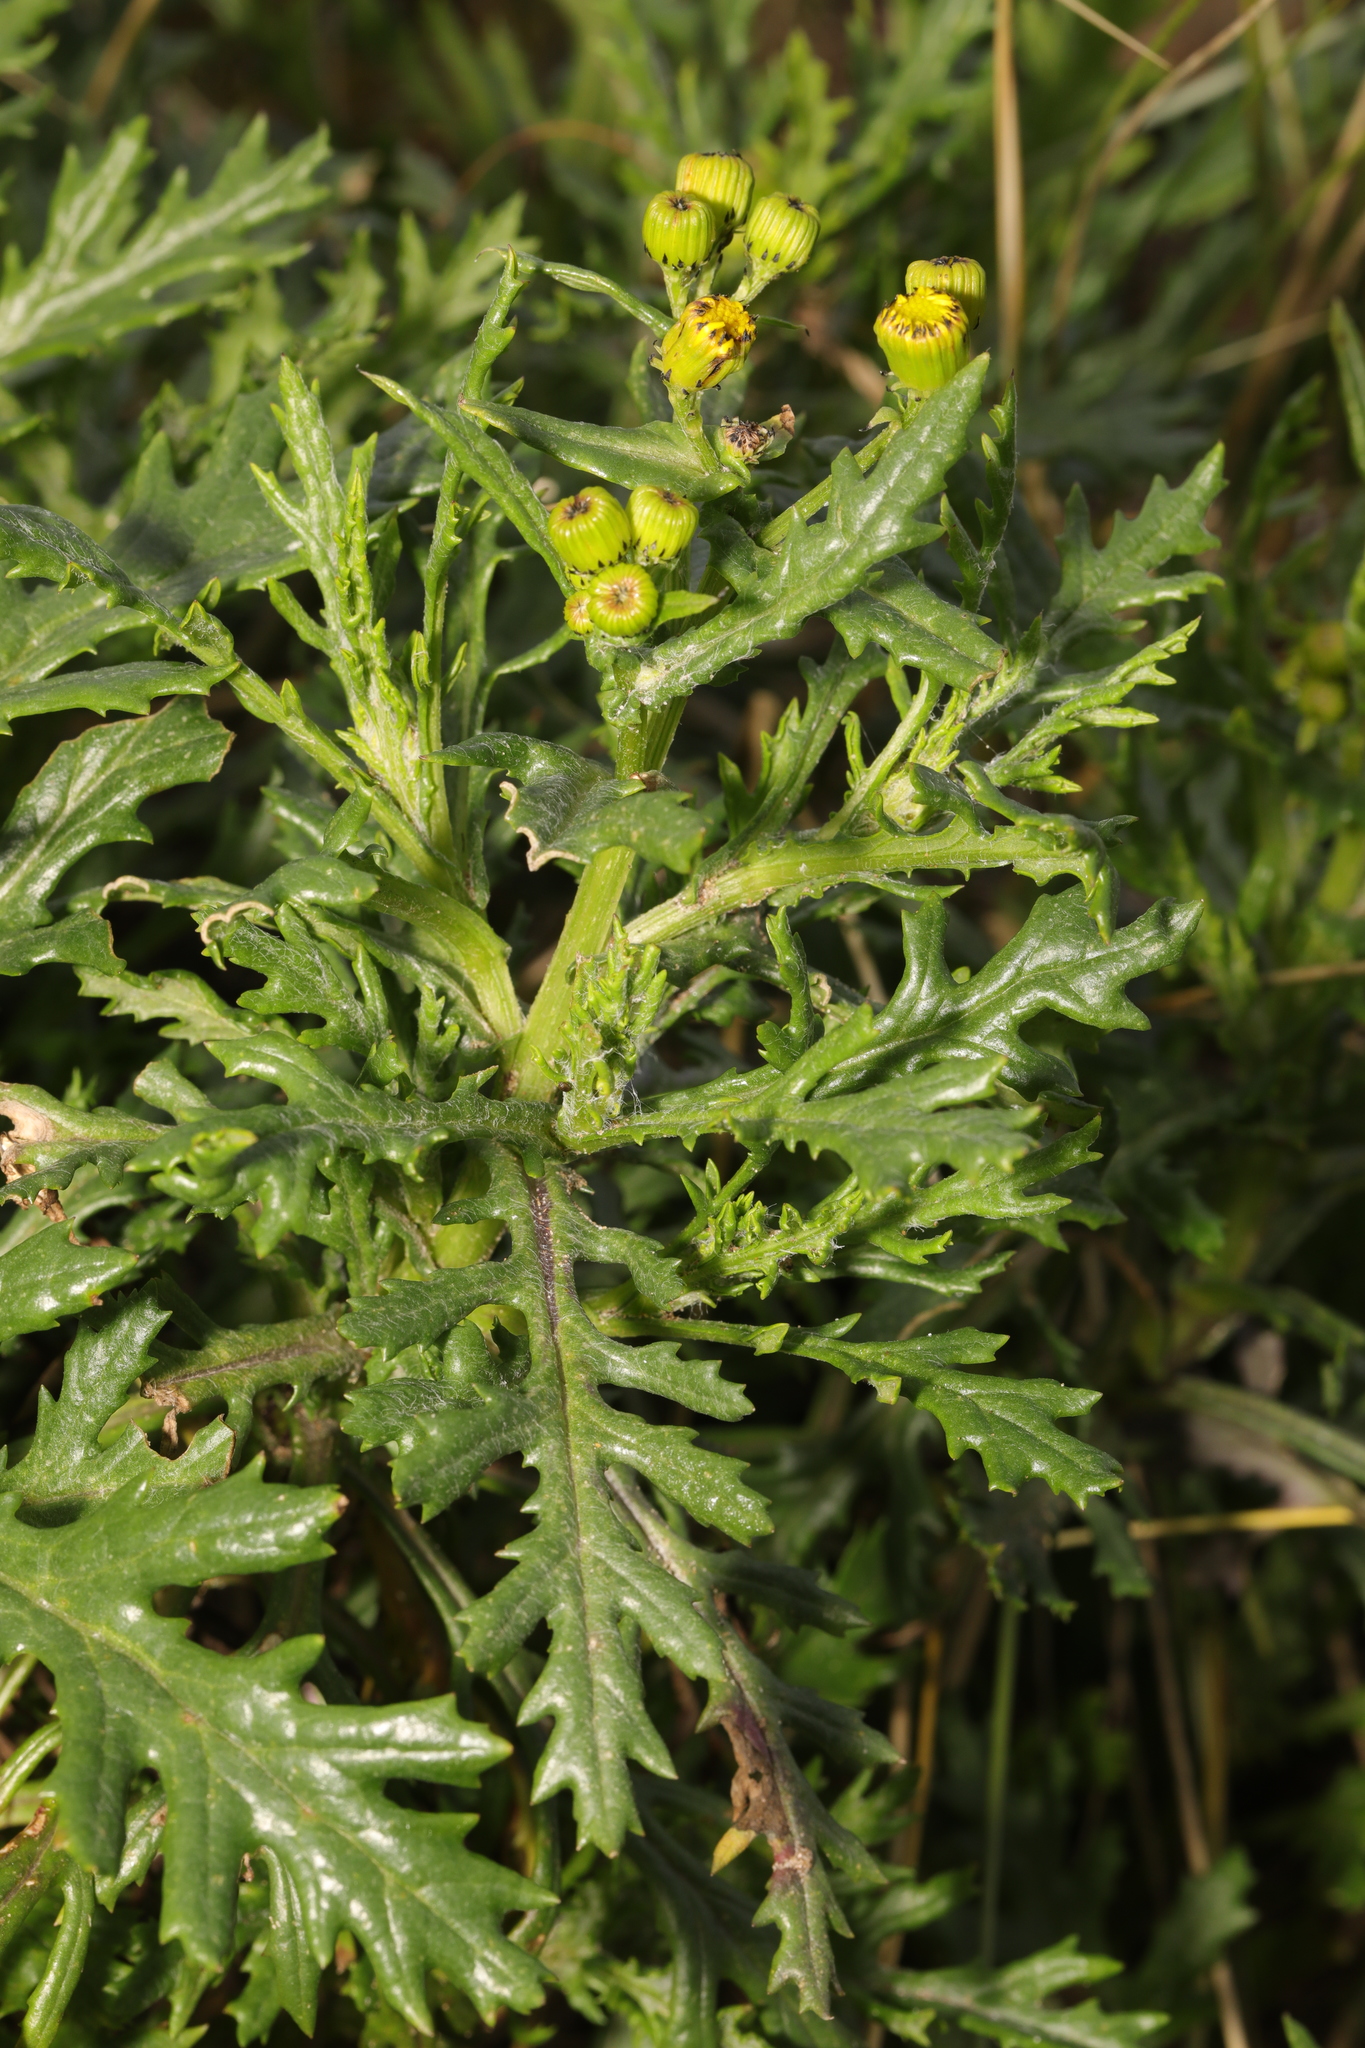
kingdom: Plantae
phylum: Tracheophyta
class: Magnoliopsida
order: Asterales
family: Asteraceae
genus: Senecio
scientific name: Senecio squalidus
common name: Oxford ragwort
